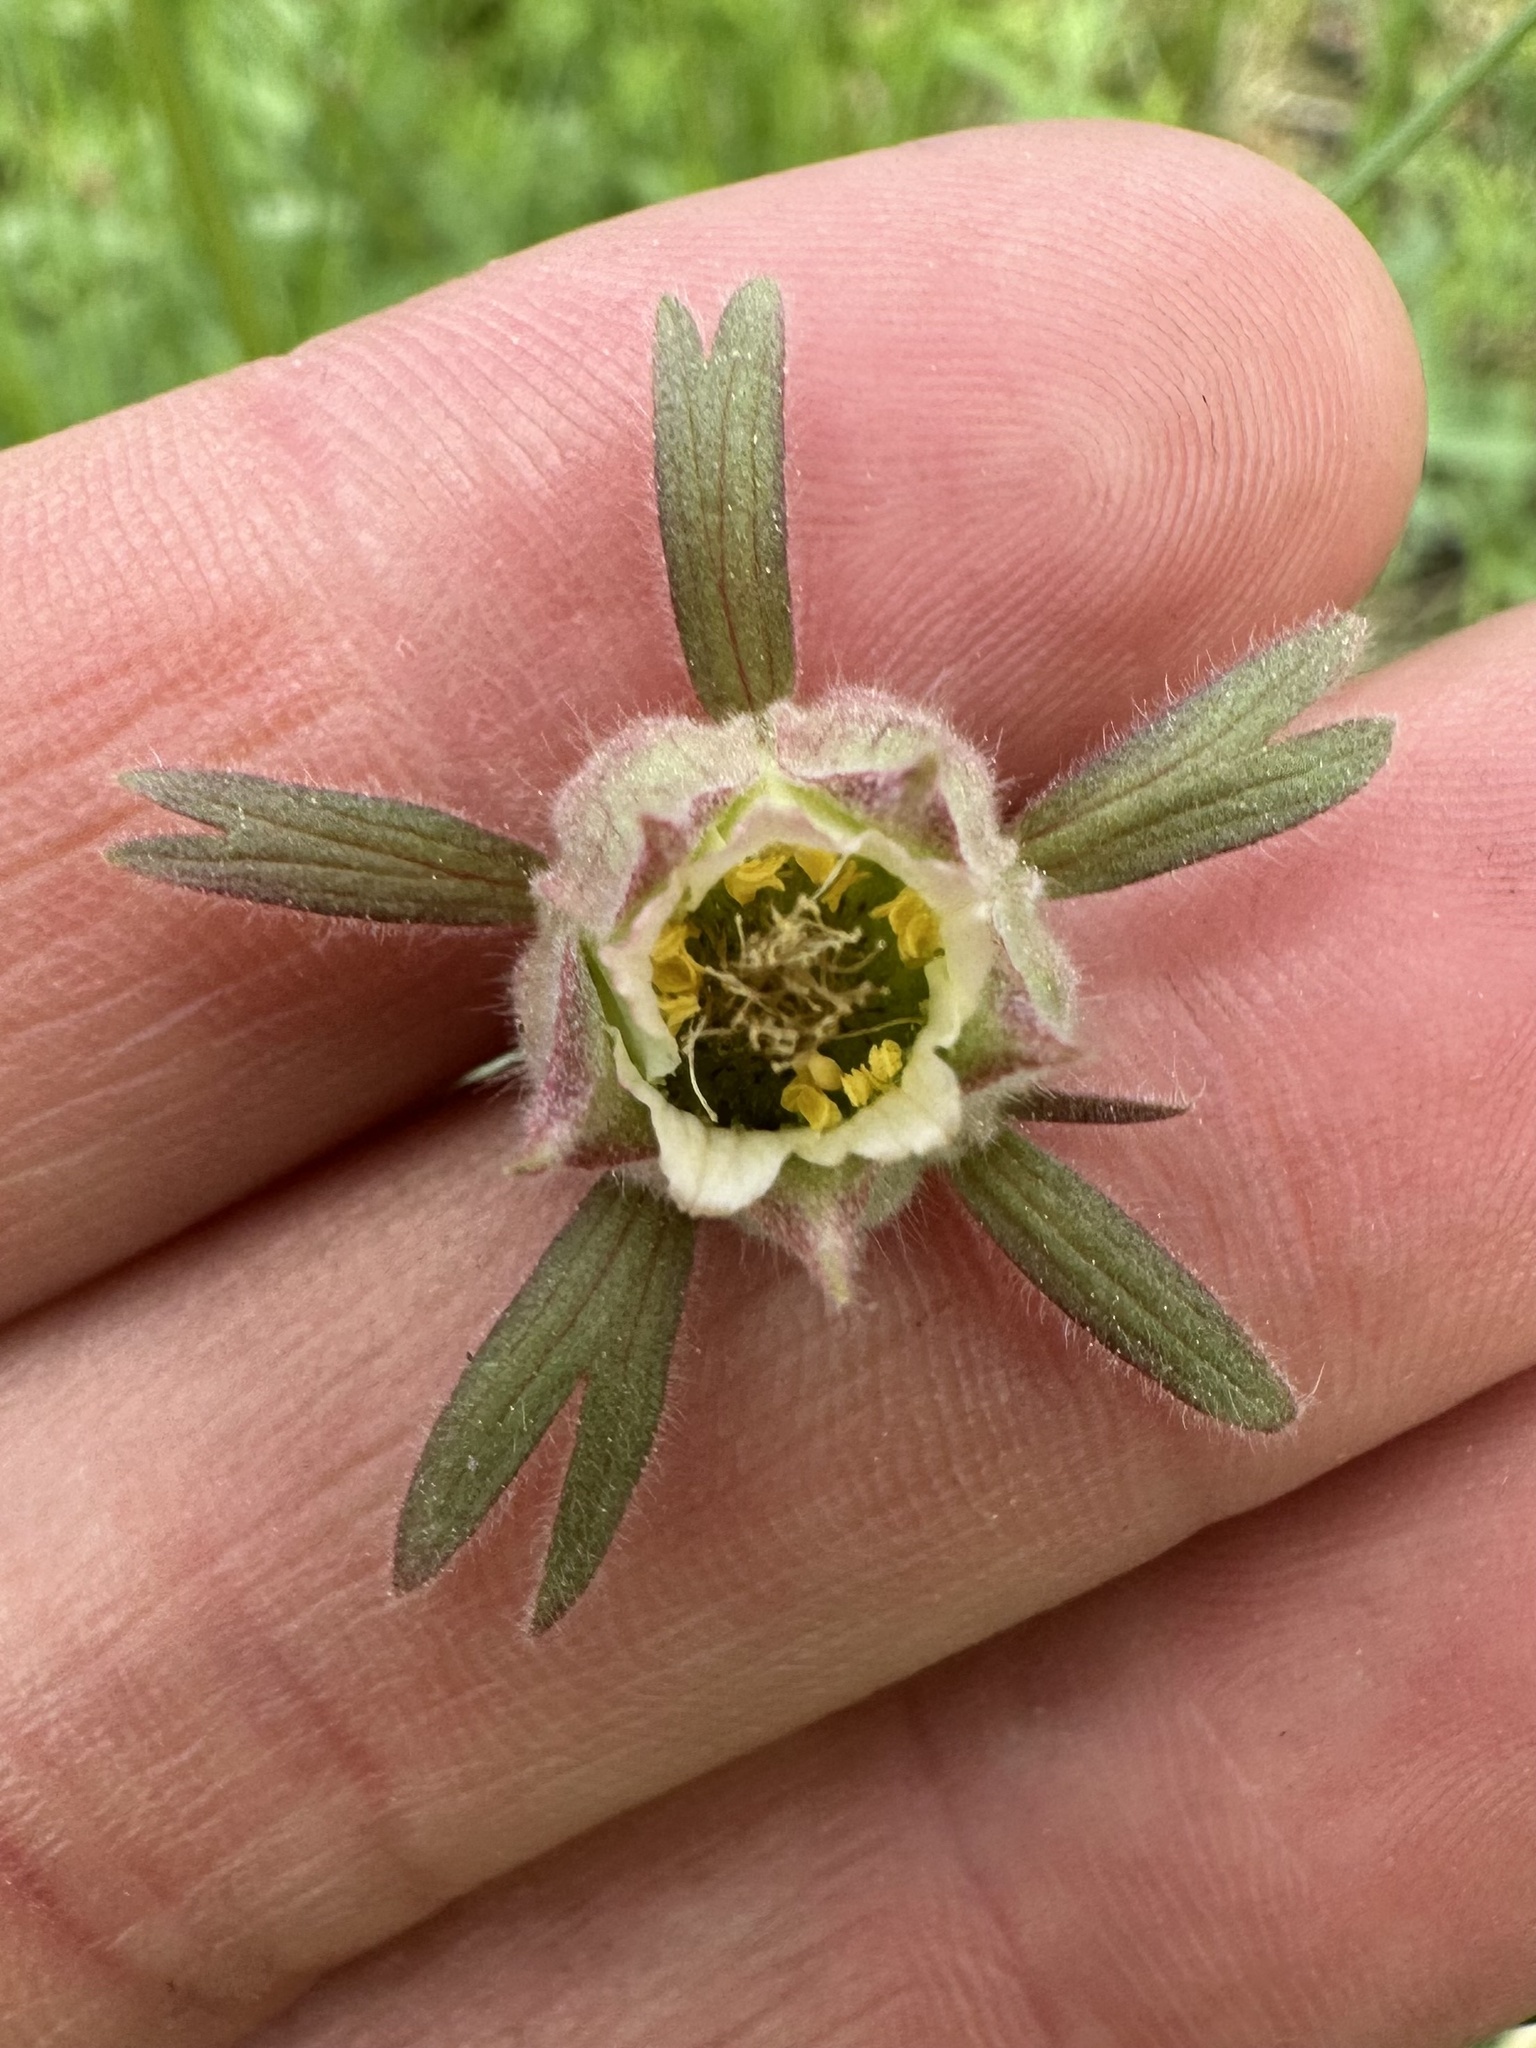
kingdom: Plantae
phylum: Tracheophyta
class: Magnoliopsida
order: Rosales
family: Rosaceae
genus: Geum
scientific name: Geum triflorum
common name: Old man's whiskers
